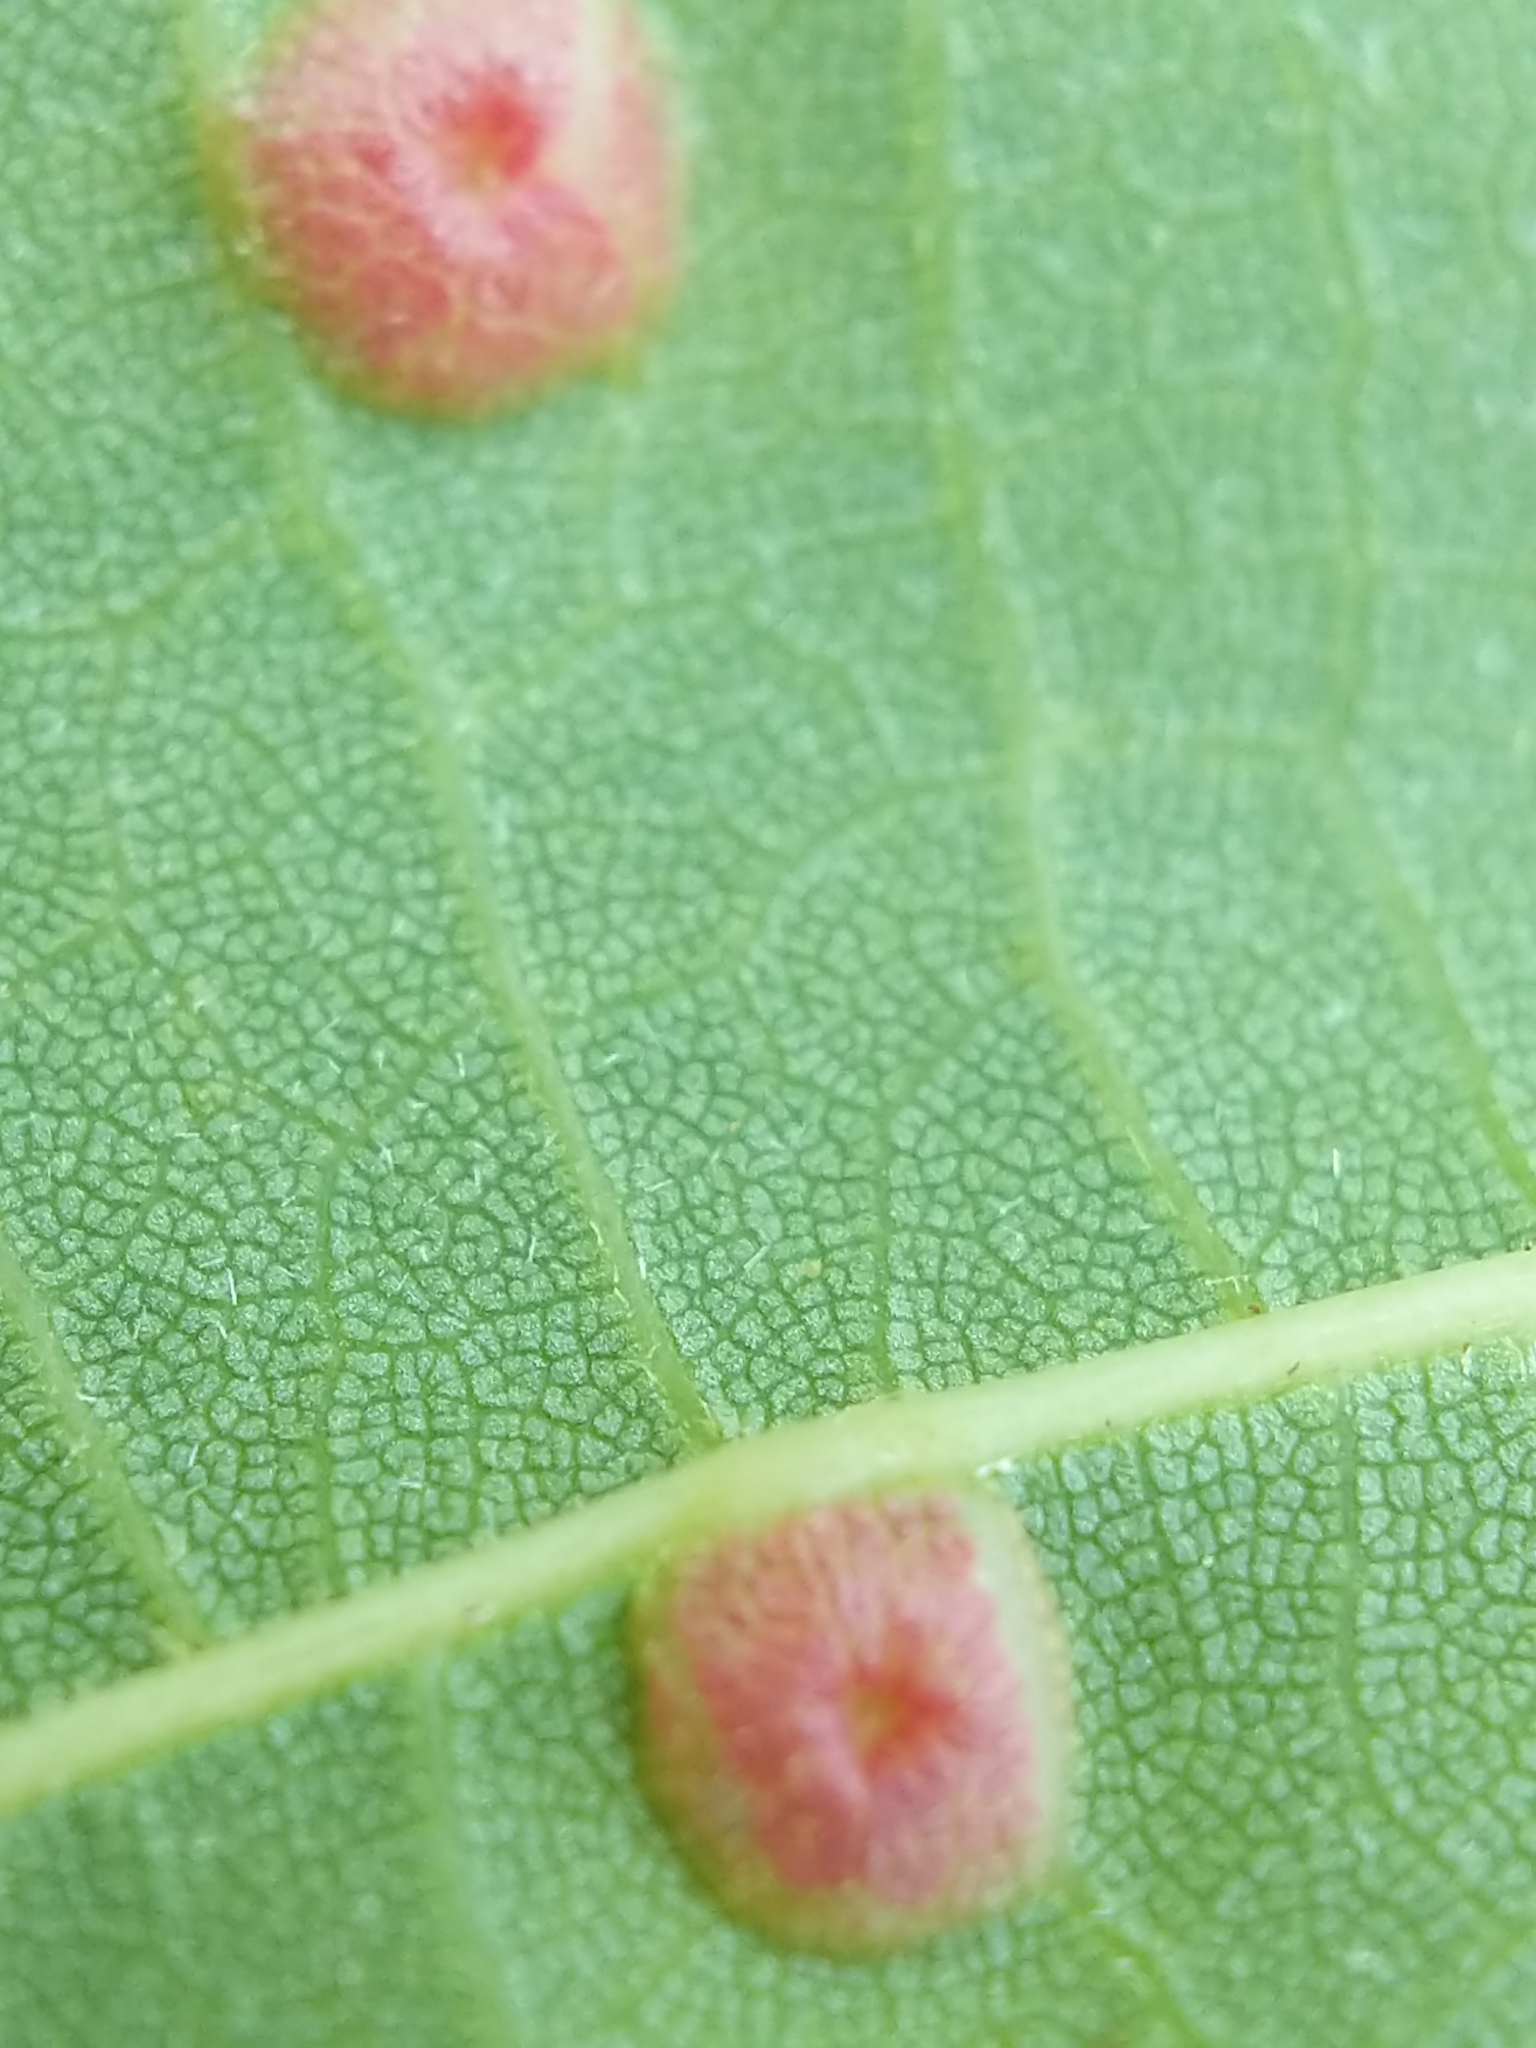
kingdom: Animalia
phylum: Arthropoda
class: Insecta
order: Diptera
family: Cecidomyiidae
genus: Contarinia
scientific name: Contarinia verrucicola
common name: Linden wart gall midge
